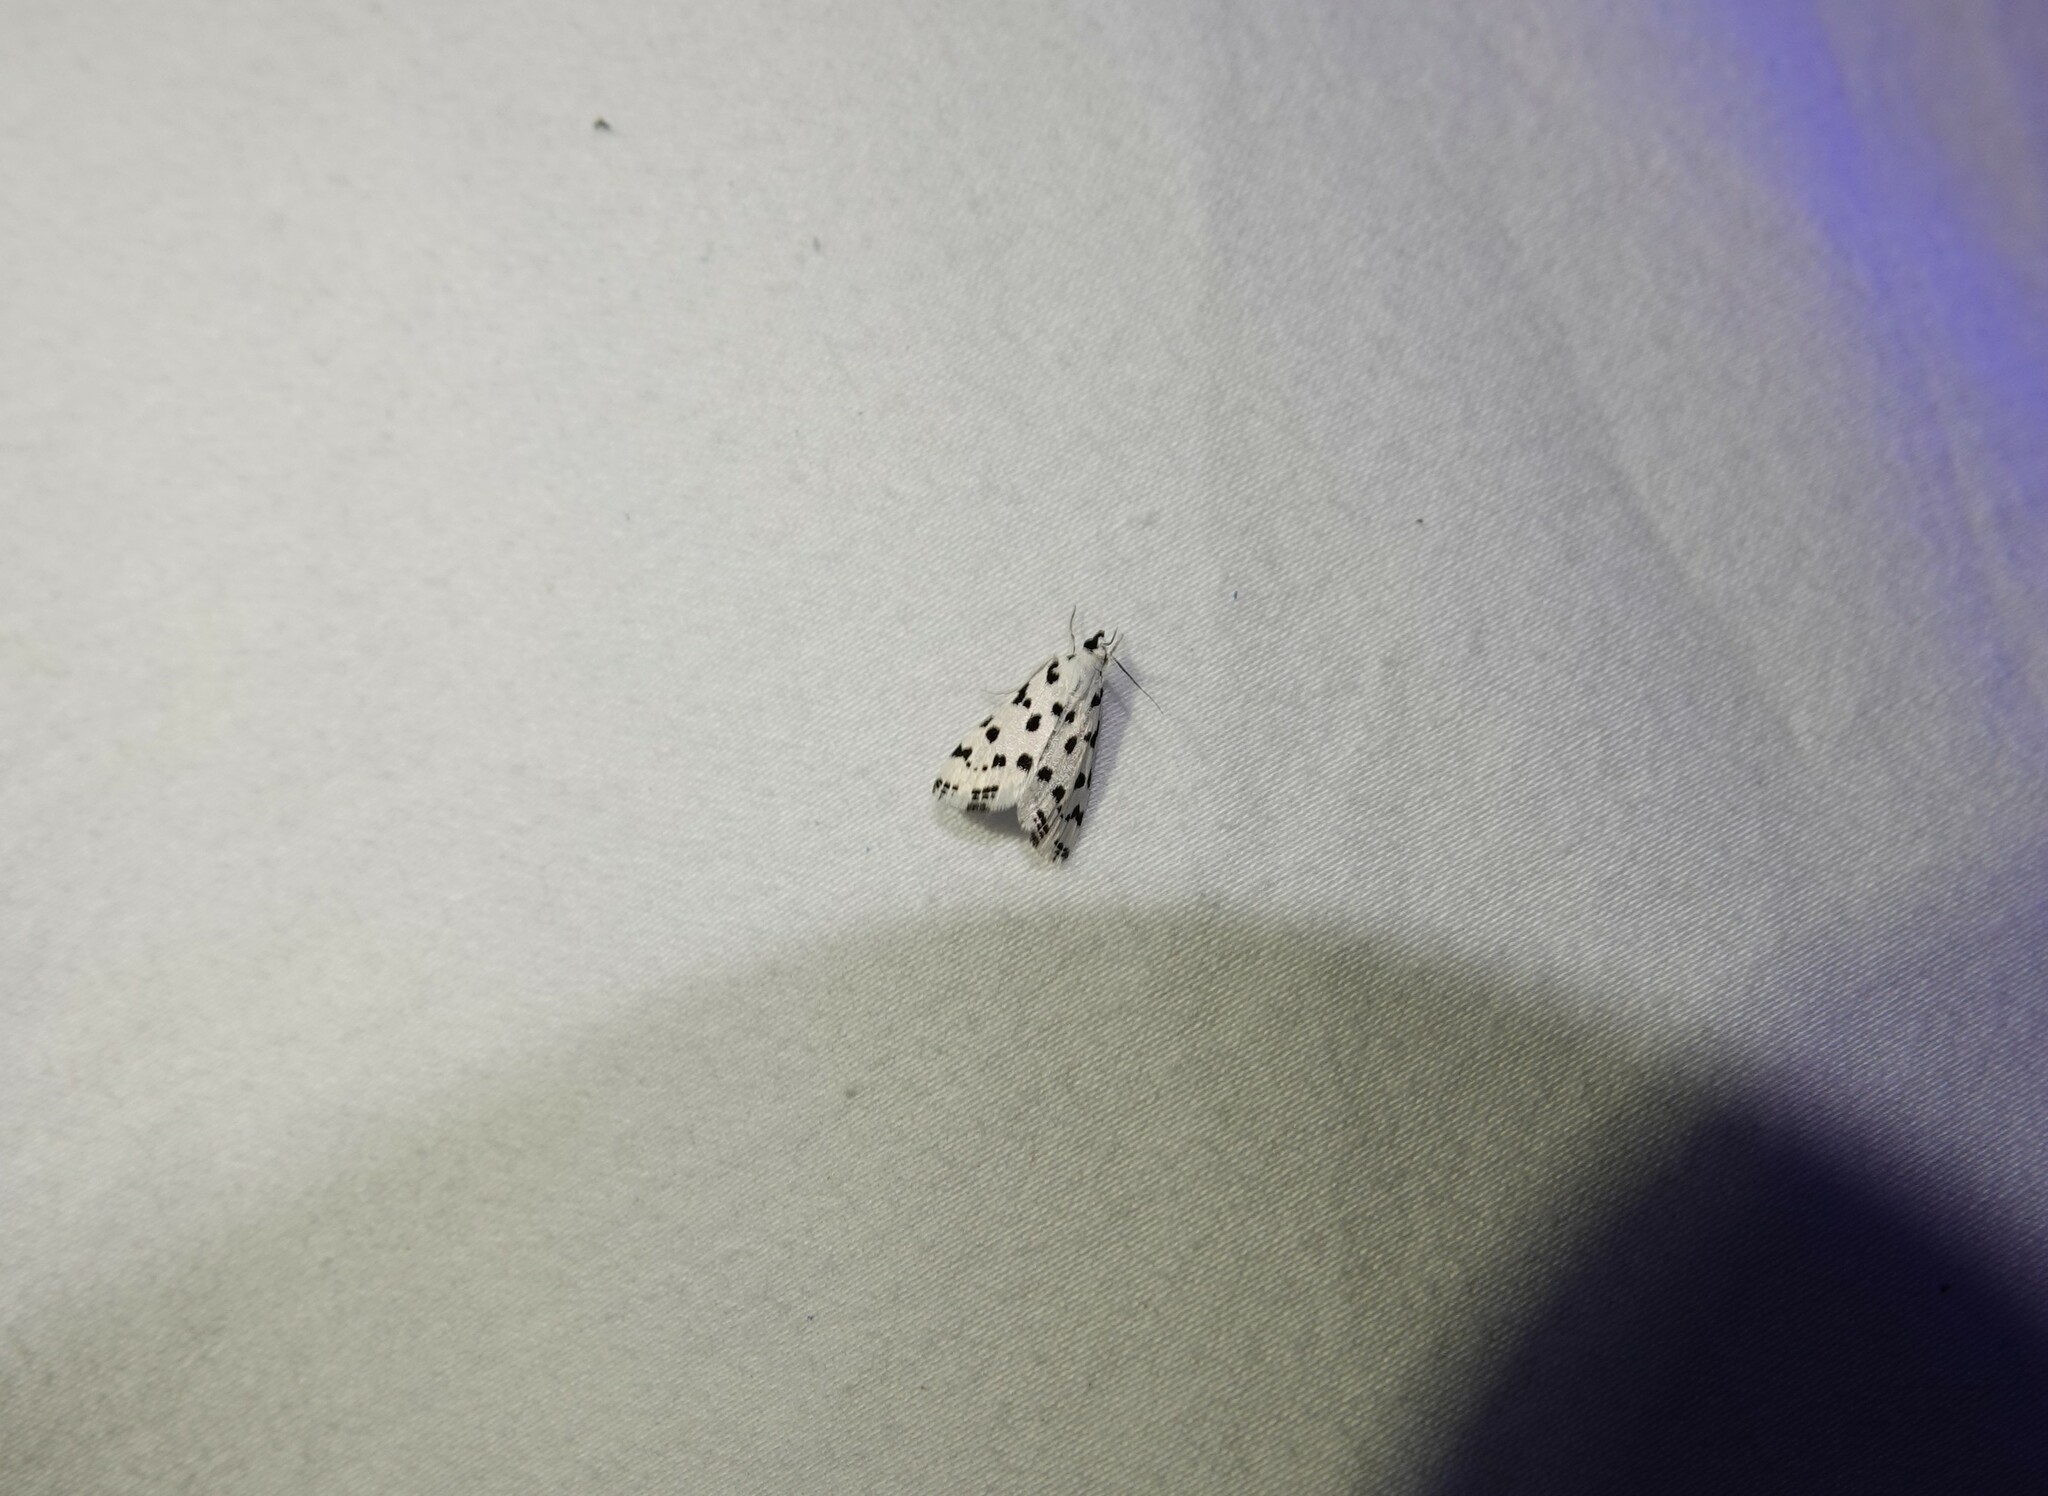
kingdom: Animalia
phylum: Arthropoda
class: Insecta
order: Lepidoptera
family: Crambidae
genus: Eustixia
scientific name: Eustixia pupula
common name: American cabbage pearl
